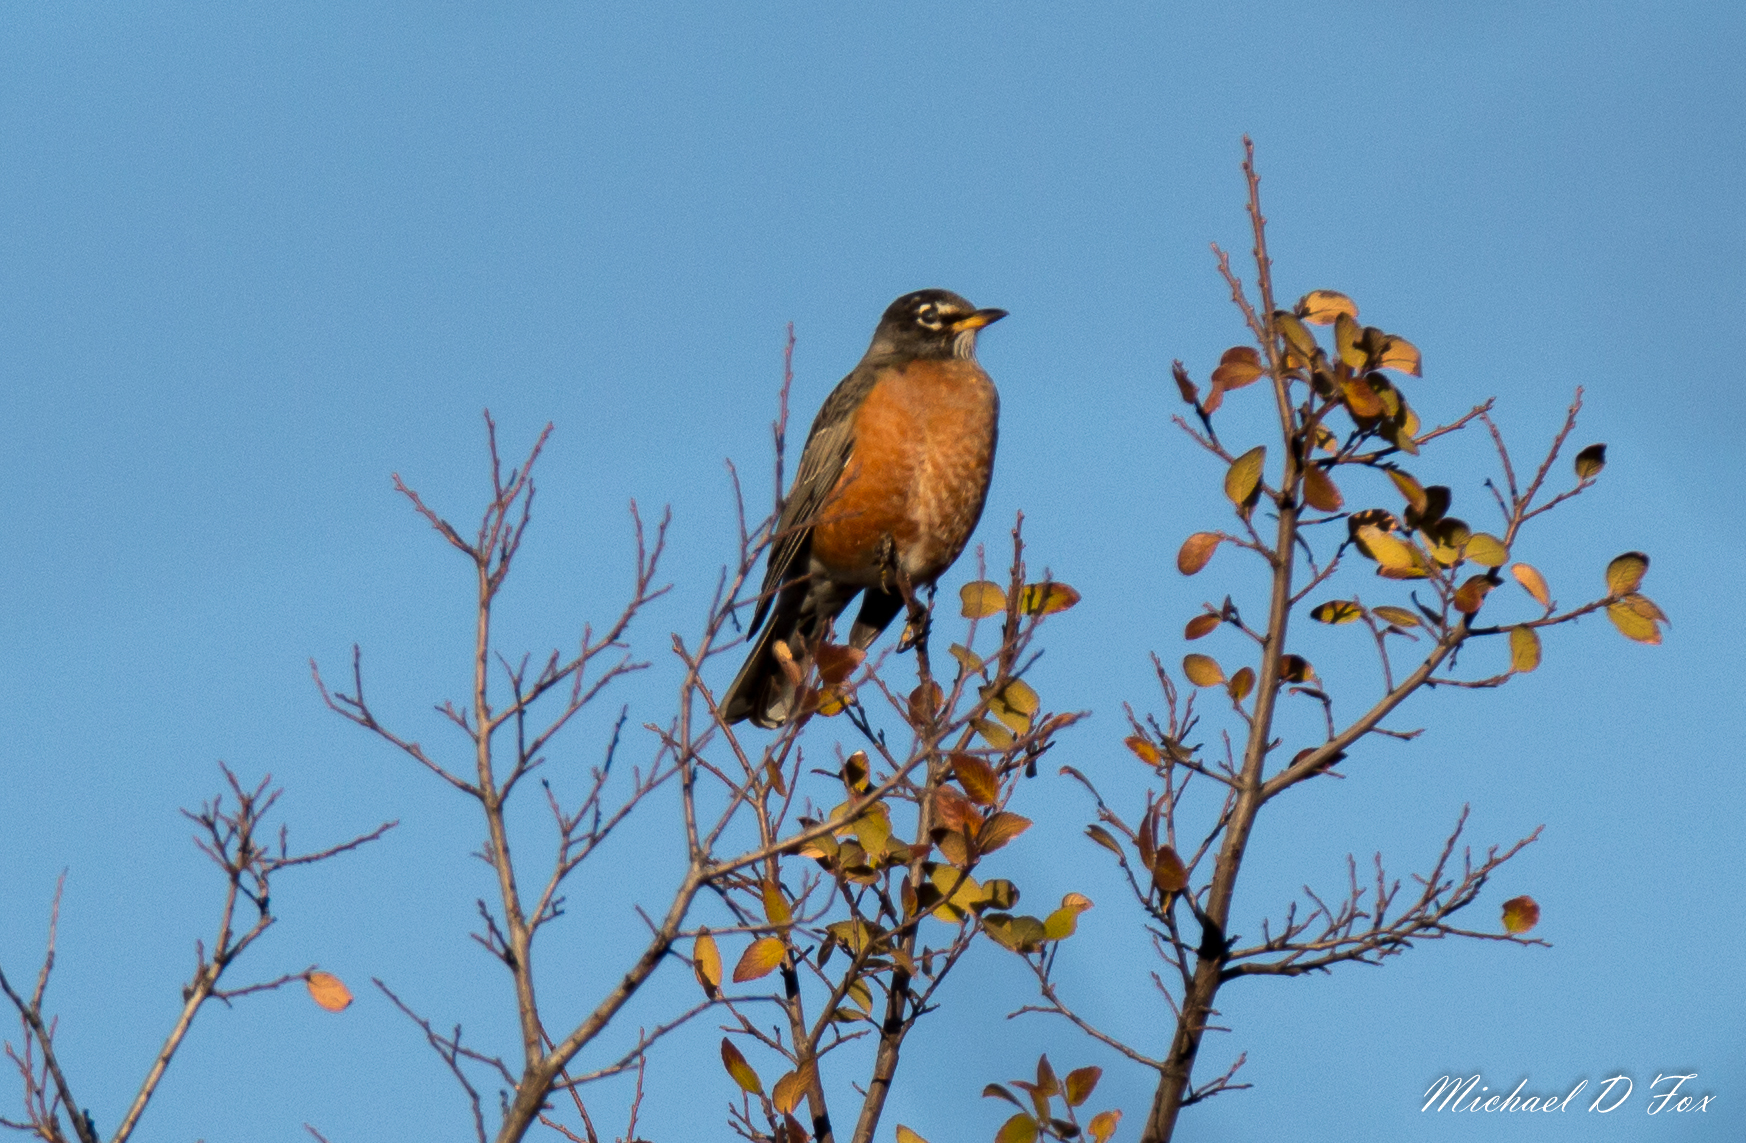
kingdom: Animalia
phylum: Chordata
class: Aves
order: Passeriformes
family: Turdidae
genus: Turdus
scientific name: Turdus migratorius
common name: American robin
